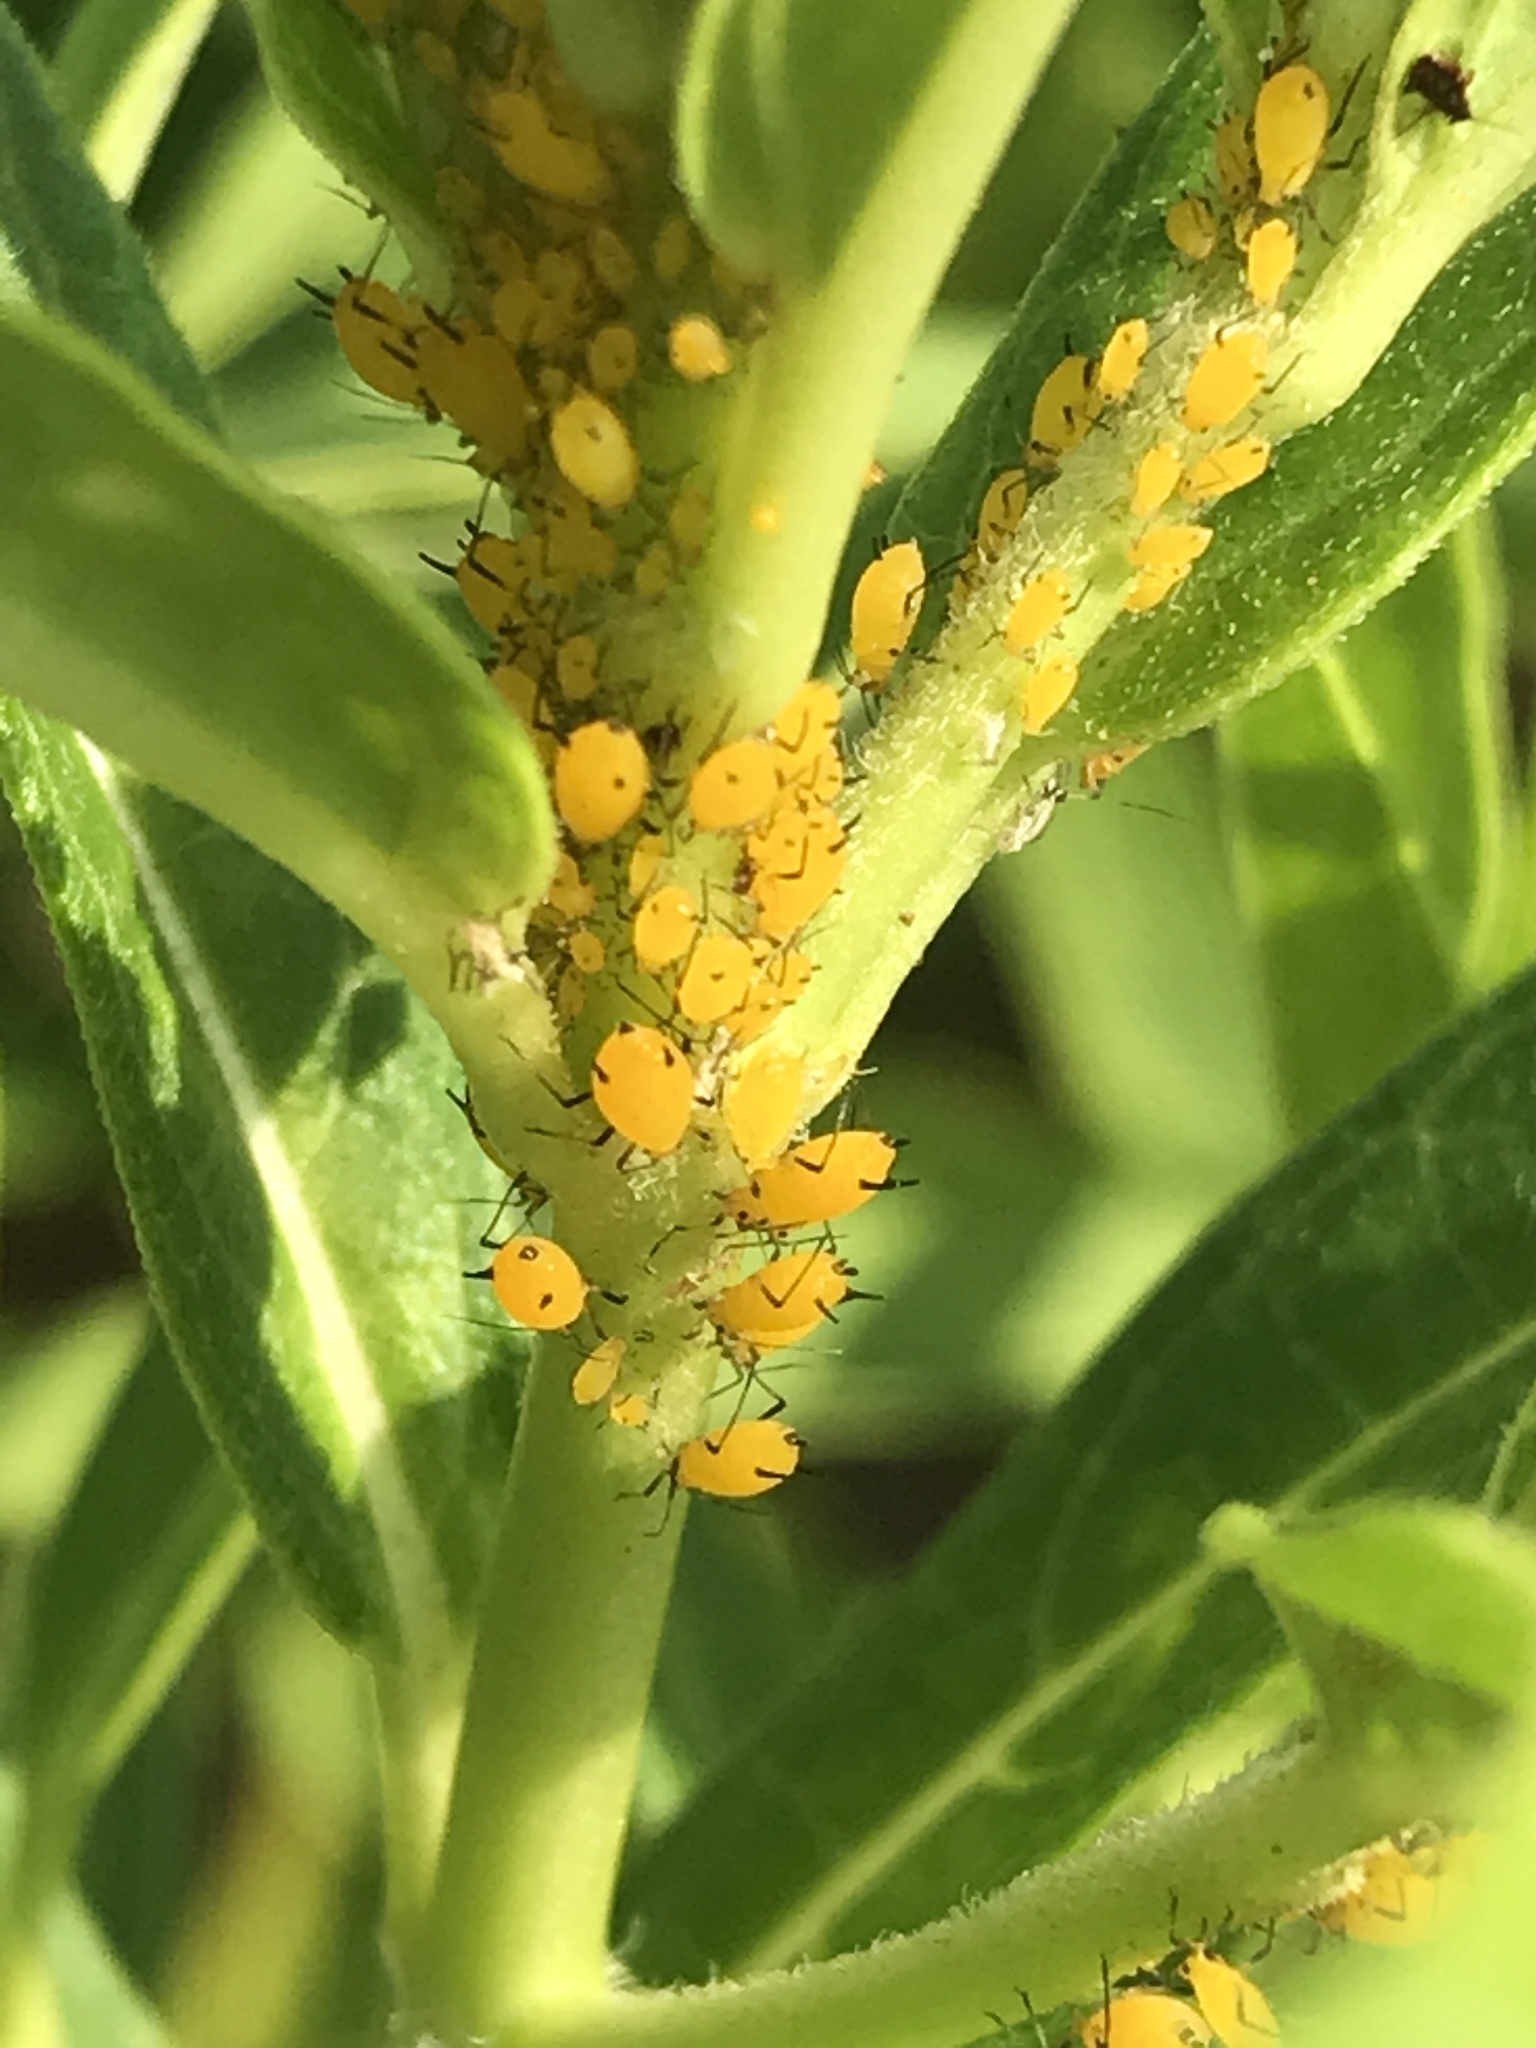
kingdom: Animalia
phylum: Arthropoda
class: Insecta
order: Hemiptera
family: Aphididae
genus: Aphis
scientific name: Aphis nerii
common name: Oleander aphid
